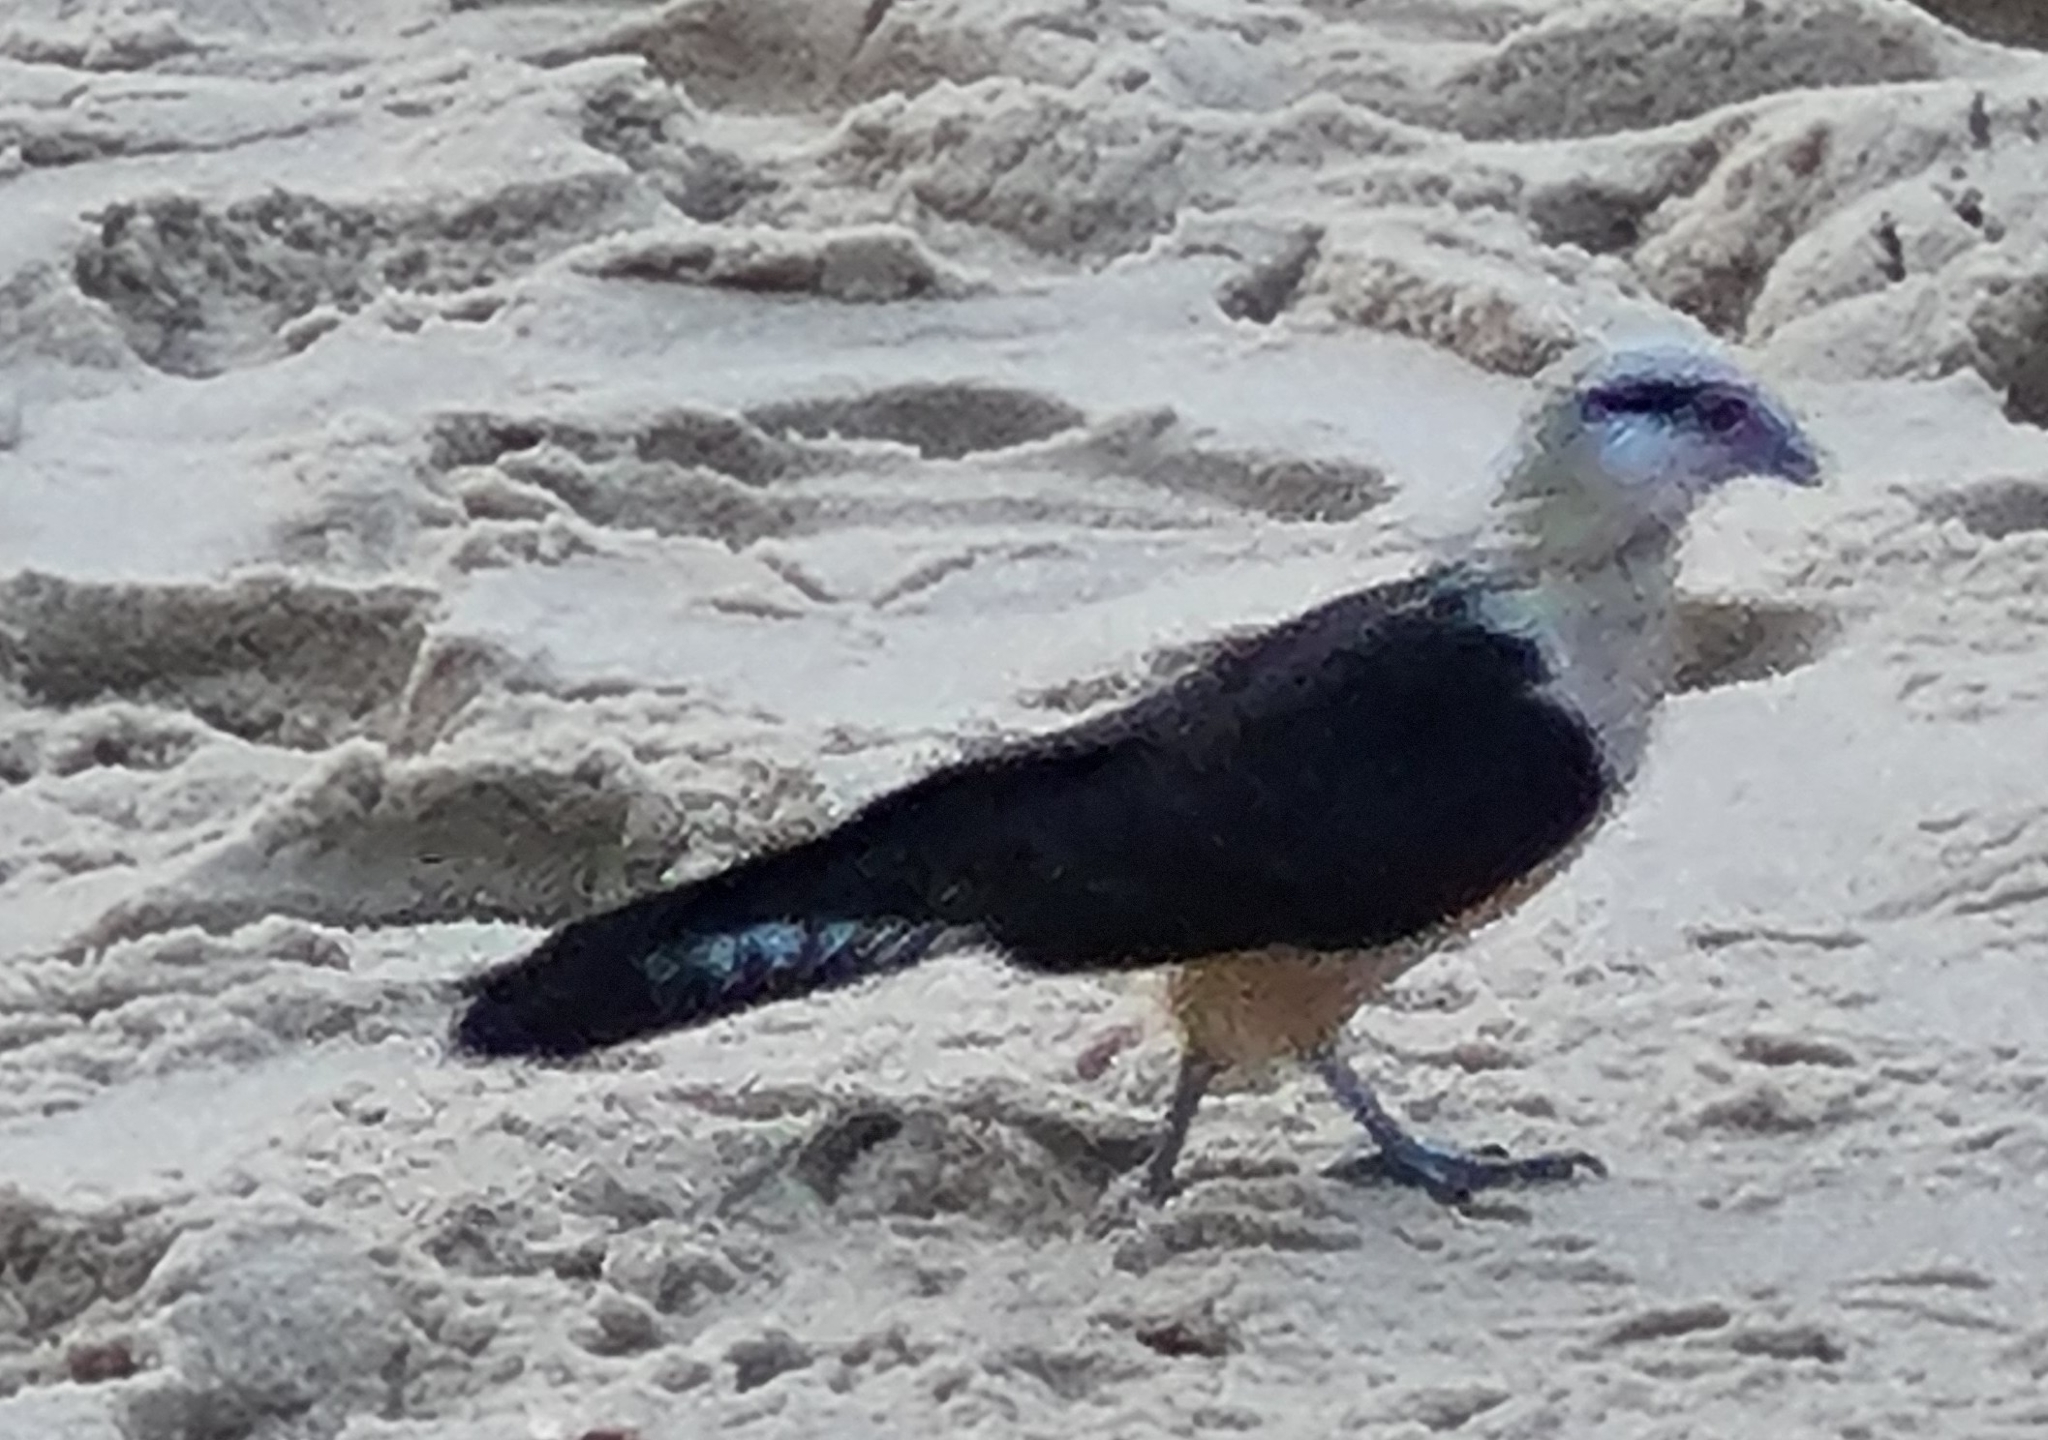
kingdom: Animalia
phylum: Chordata
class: Aves
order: Falconiformes
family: Falconidae
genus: Daptrius
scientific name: Daptrius
